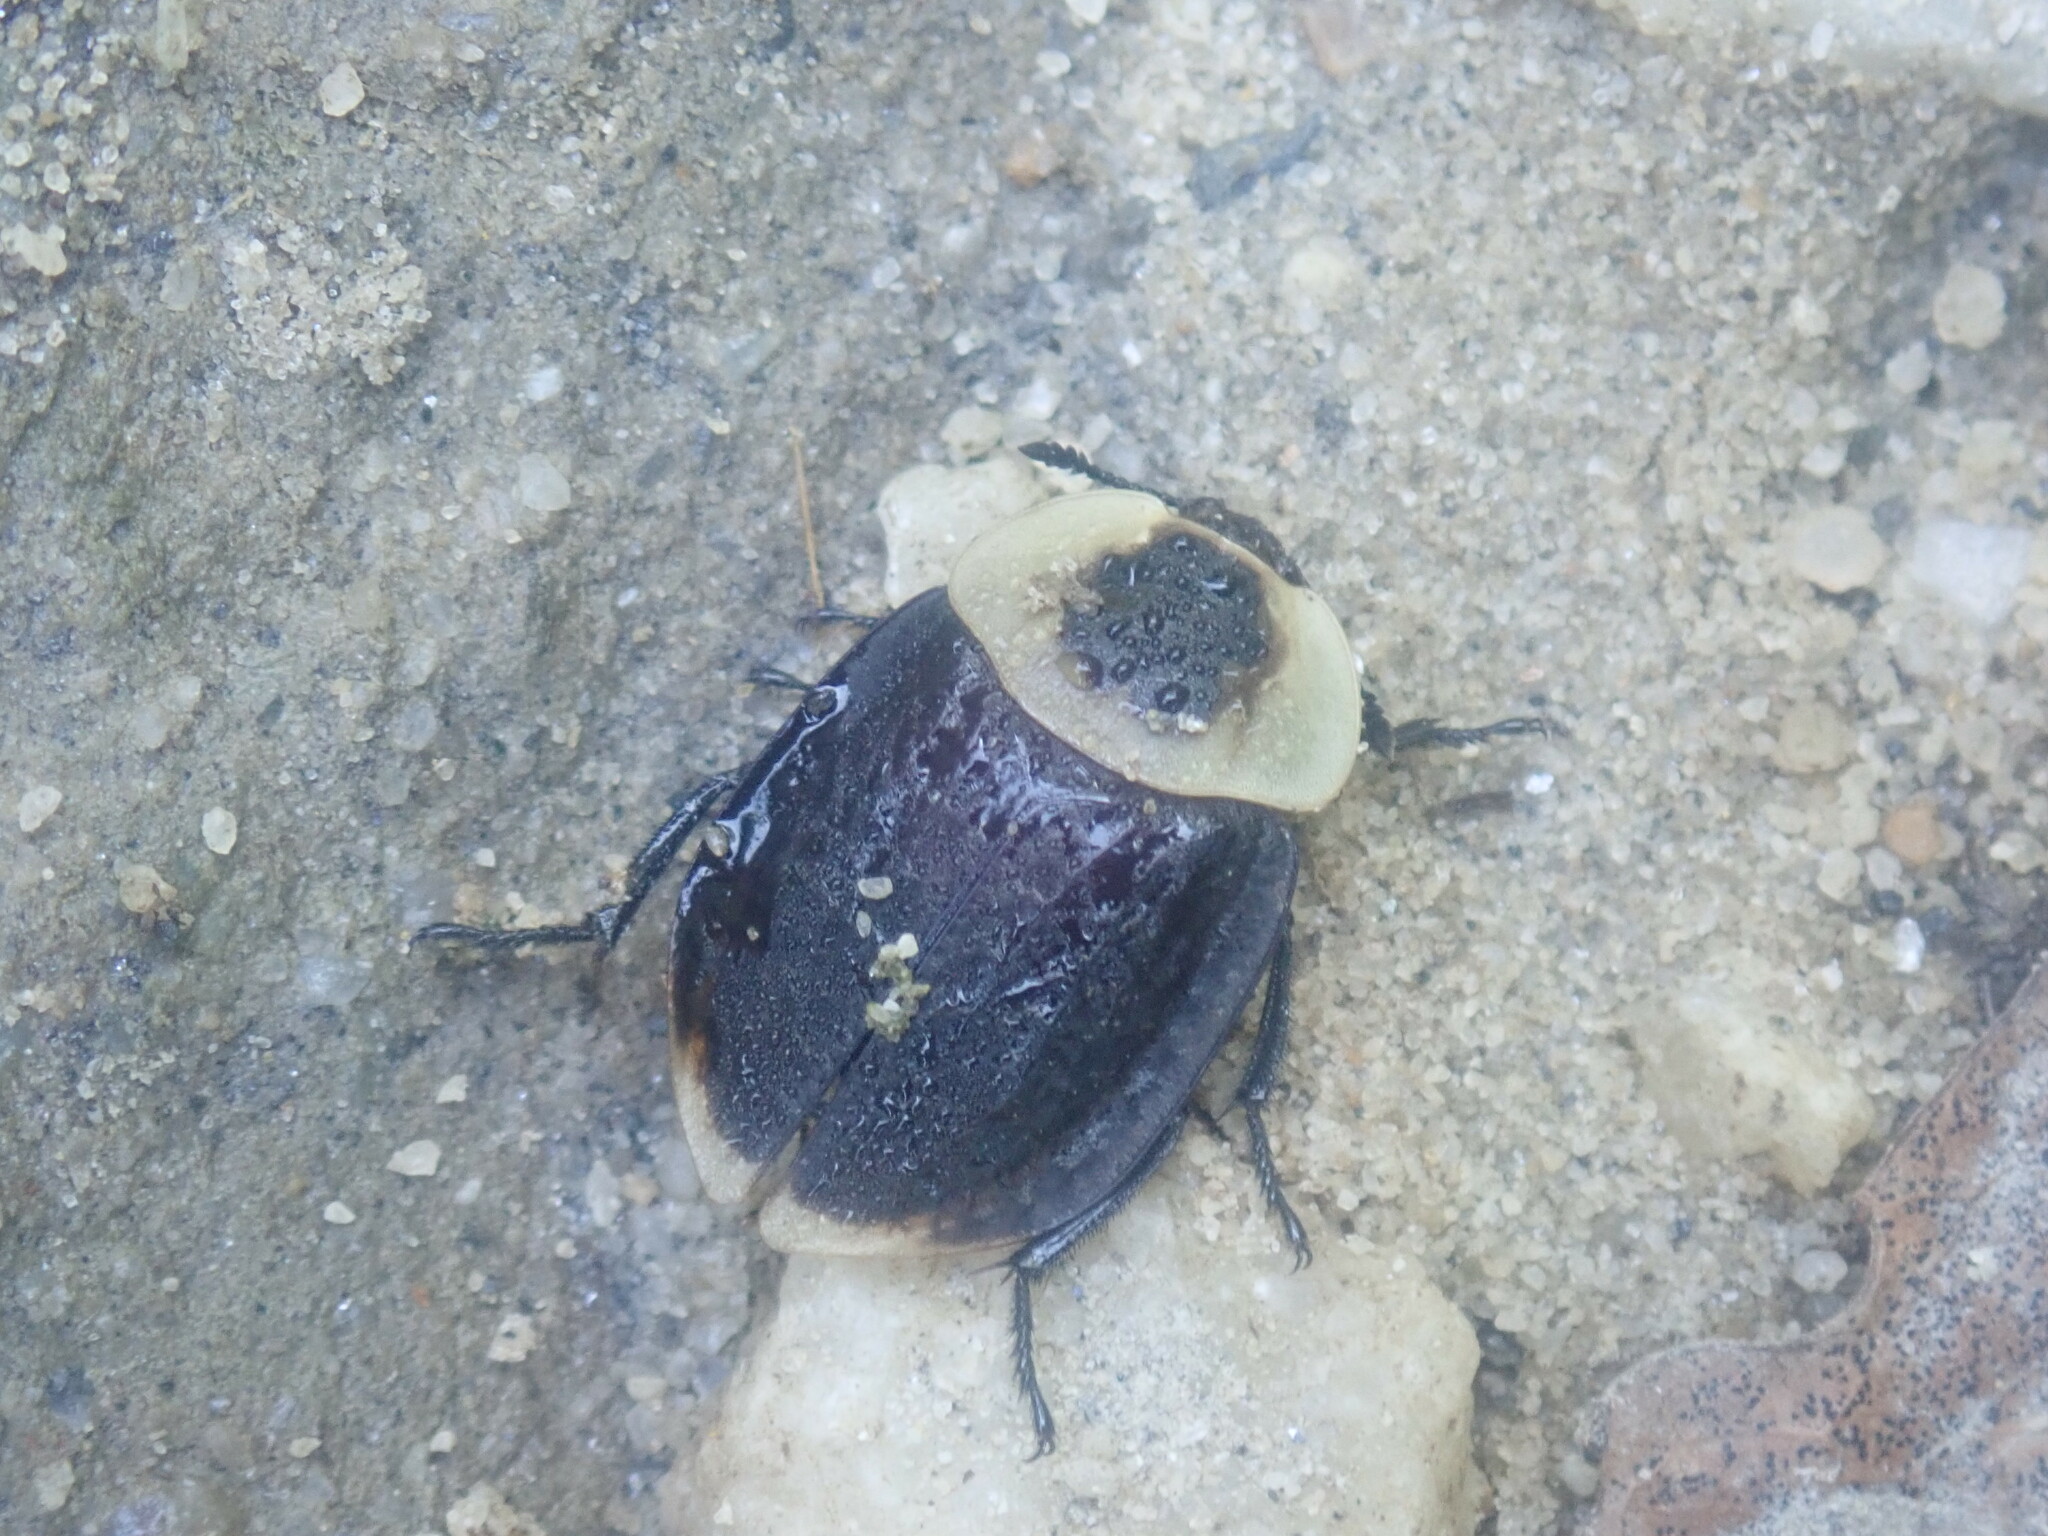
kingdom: Animalia
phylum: Arthropoda
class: Insecta
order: Coleoptera
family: Staphylinidae
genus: Necrophila
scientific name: Necrophila americana
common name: American carrion beetle
